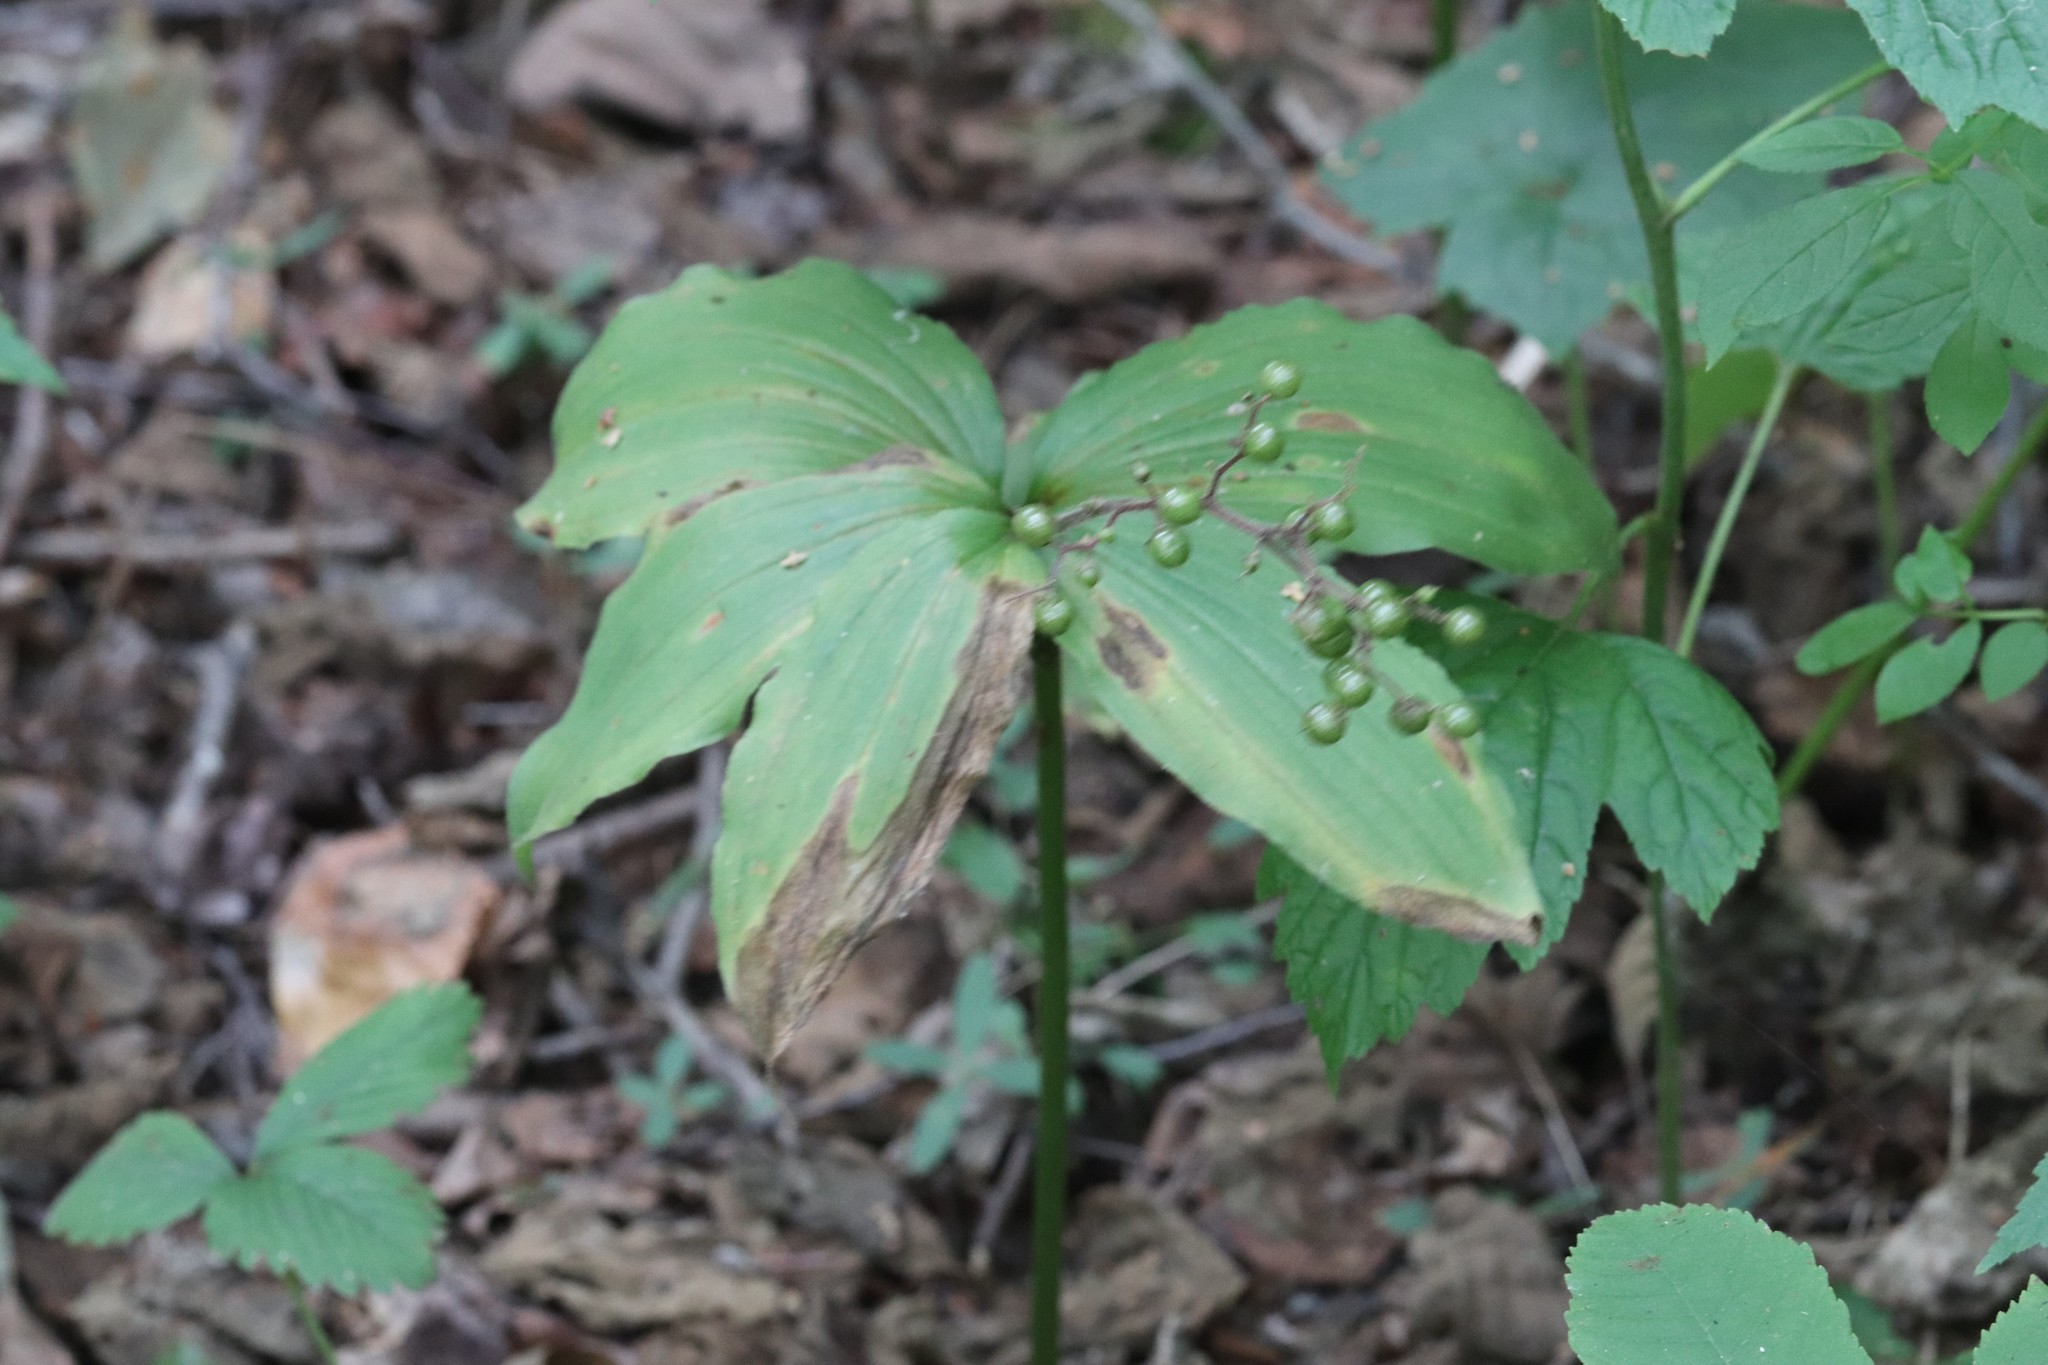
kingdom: Plantae
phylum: Tracheophyta
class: Liliopsida
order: Asparagales
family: Asparagaceae
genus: Maianthemum
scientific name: Maianthemum japonicum
